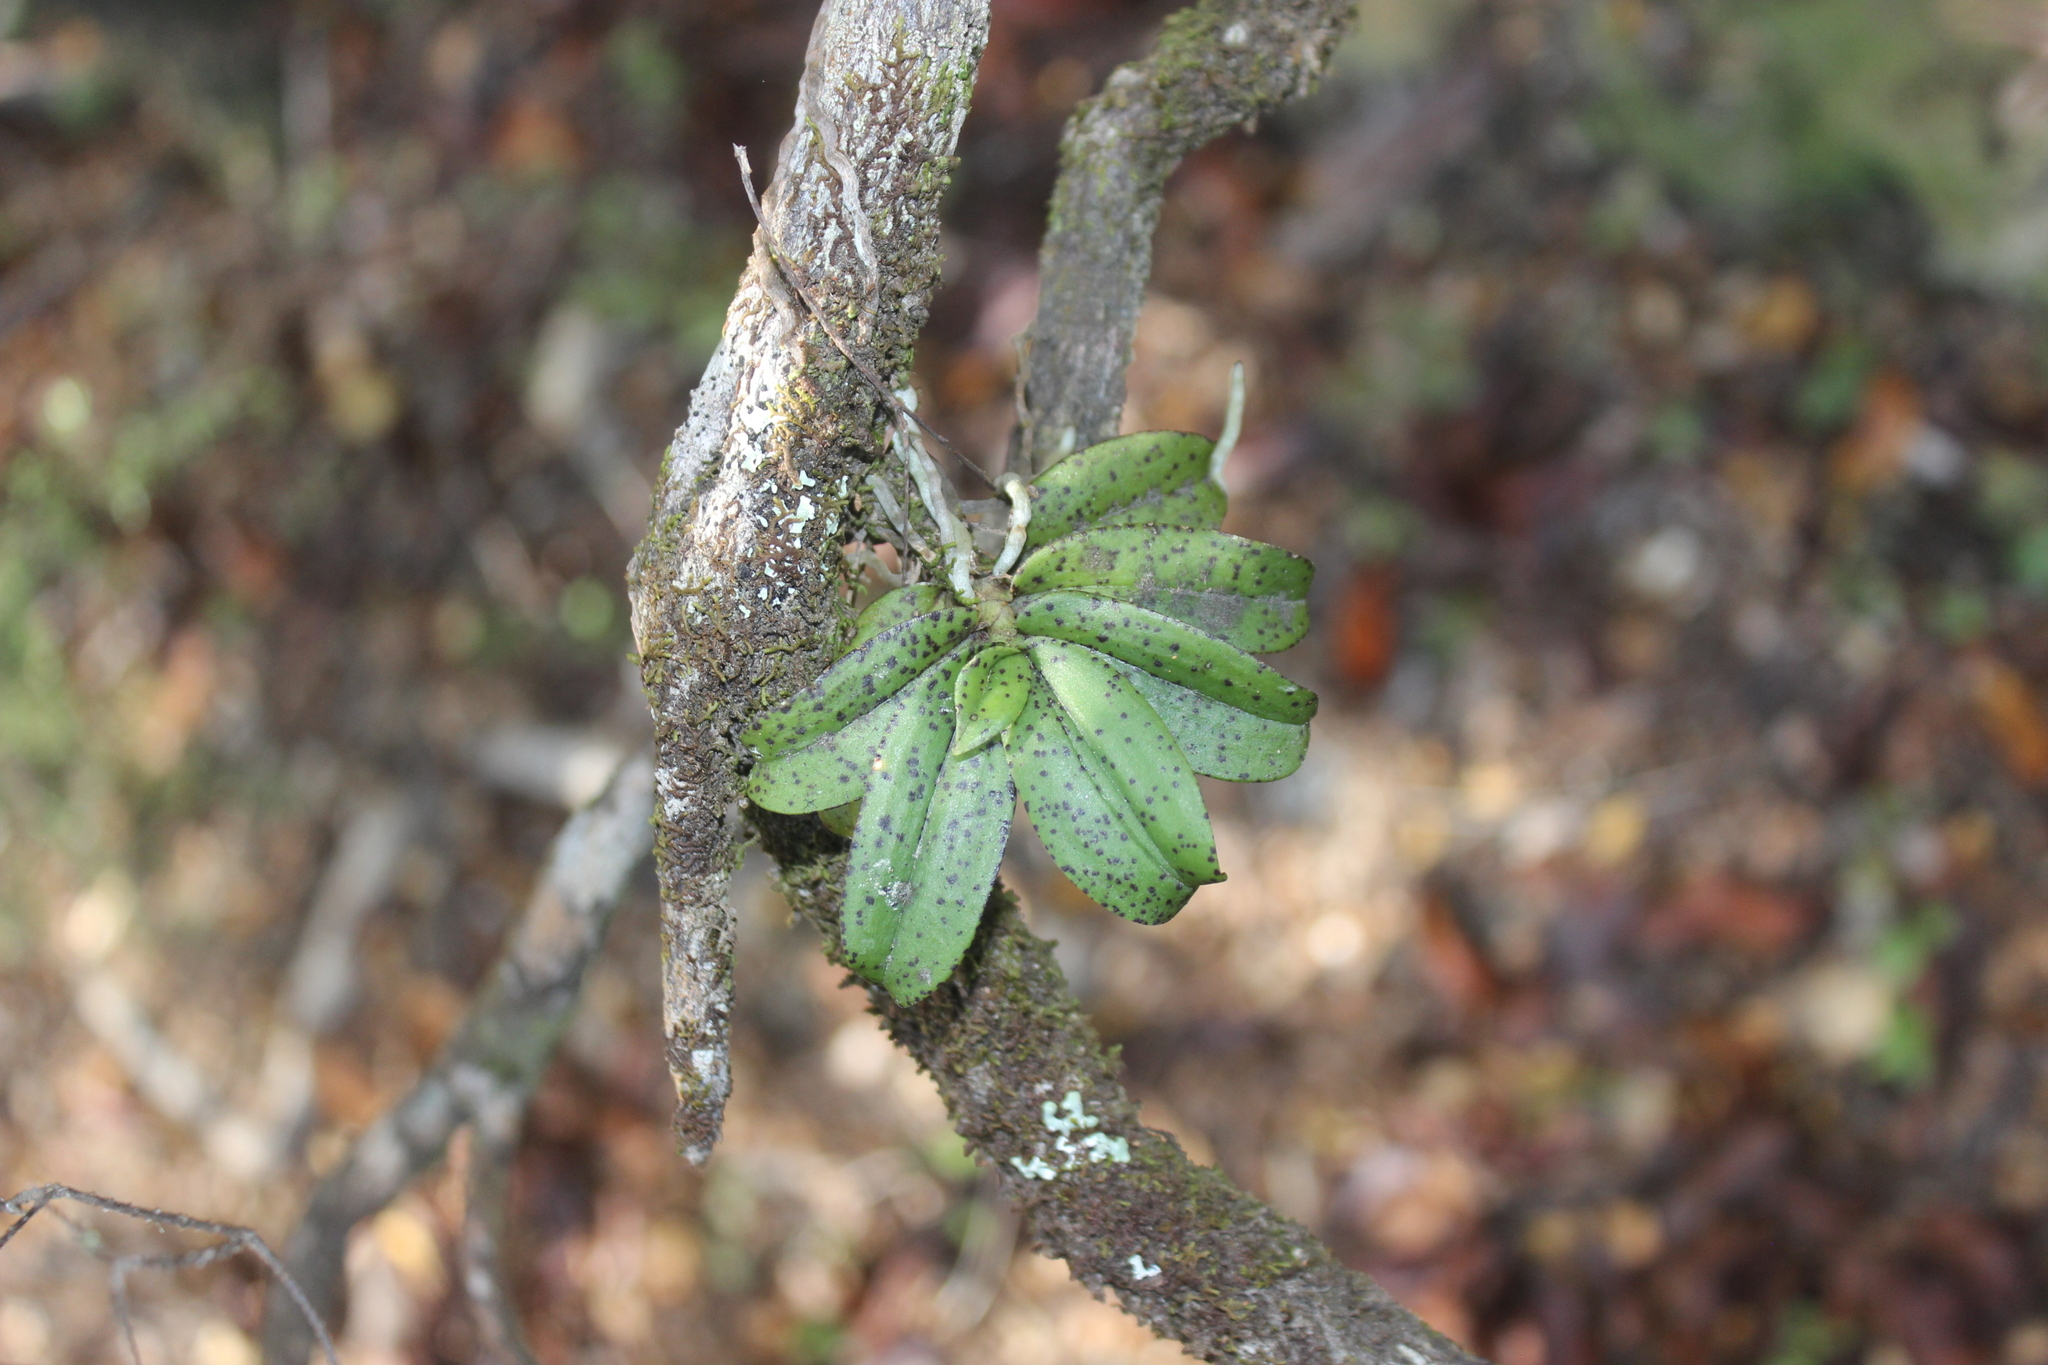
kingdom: Plantae
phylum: Tracheophyta
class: Liliopsida
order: Asparagales
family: Orchidaceae
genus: Drymoanthus
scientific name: Drymoanthus flavus
